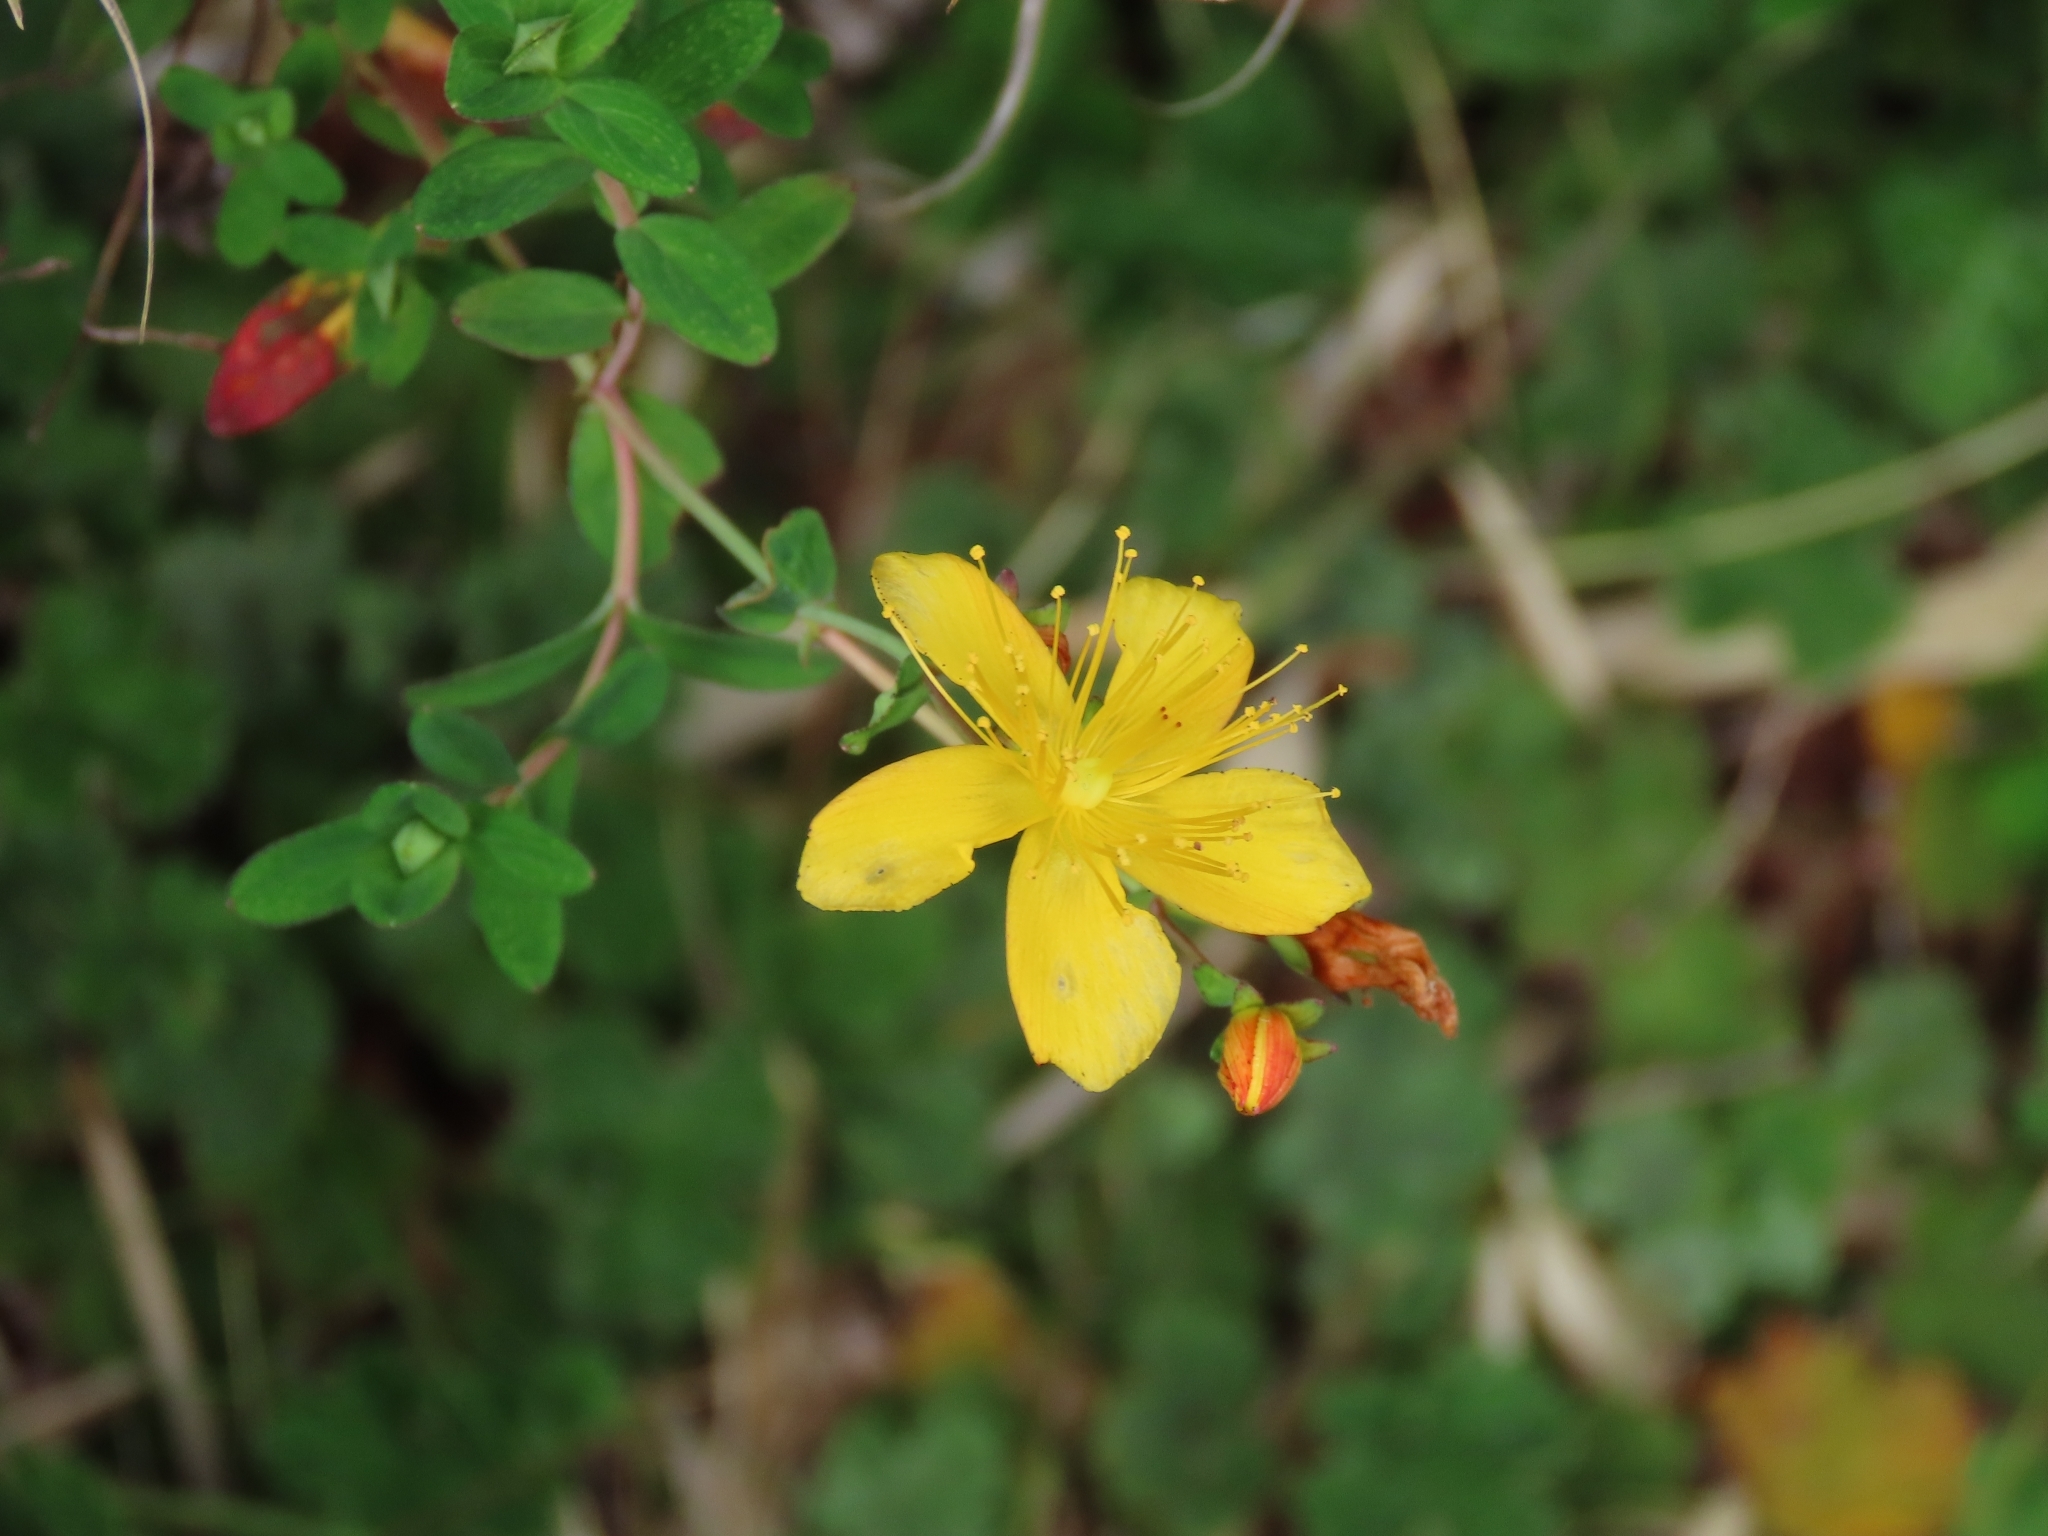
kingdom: Plantae
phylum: Tracheophyta
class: Magnoliopsida
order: Malpighiales
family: Hypericaceae
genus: Hypericum
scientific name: Hypericum nagasawae
